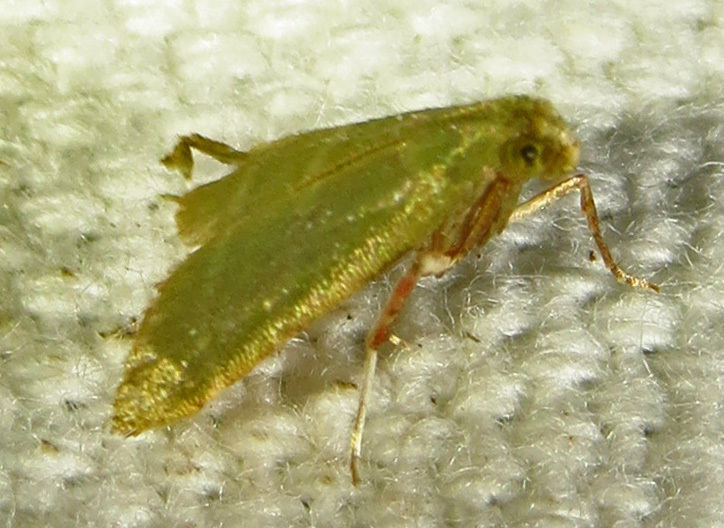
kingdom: Animalia
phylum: Arthropoda
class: Insecta
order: Lepidoptera
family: Pyralidae
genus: Arta
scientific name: Arta olivalis
